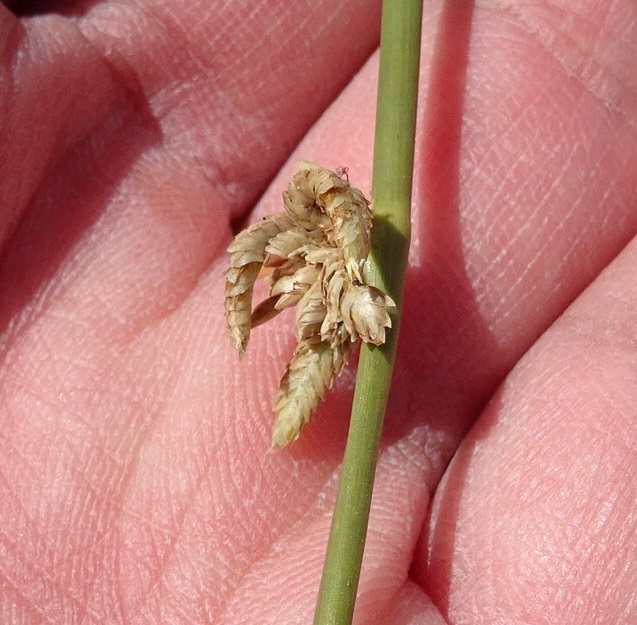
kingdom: Plantae
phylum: Tracheophyta
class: Liliopsida
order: Poales
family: Cyperaceae
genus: Cyperus
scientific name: Cyperus laevigatus
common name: Smooth flat sedge
